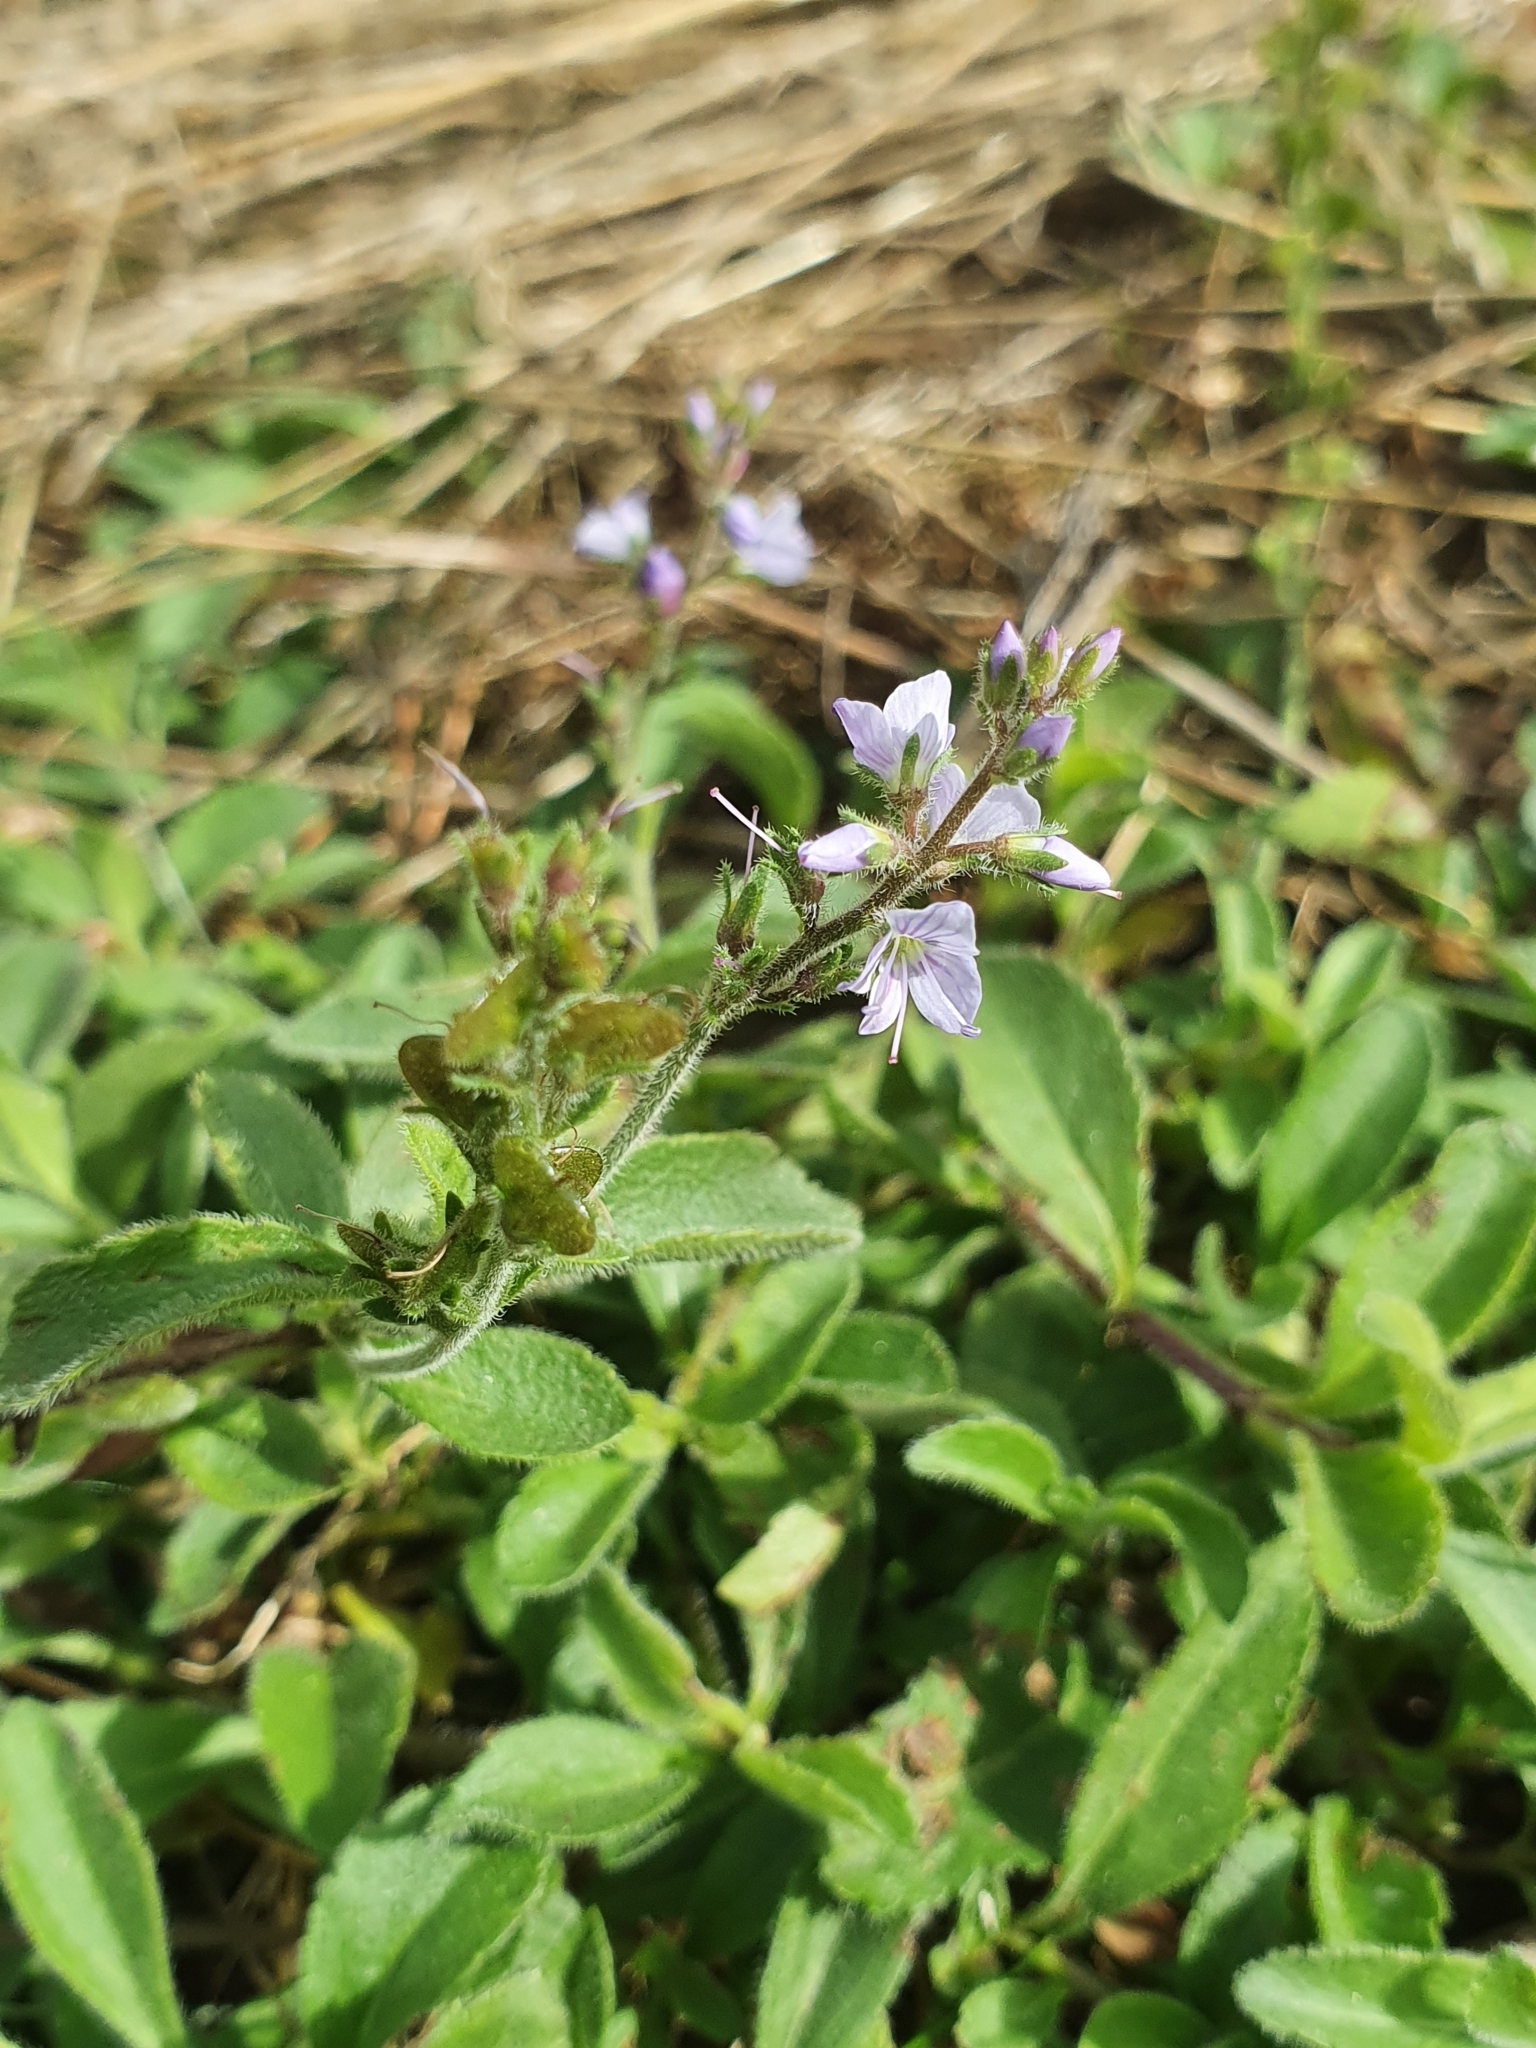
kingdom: Plantae
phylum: Tracheophyta
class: Magnoliopsida
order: Lamiales
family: Plantaginaceae
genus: Veronica
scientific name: Veronica officinalis
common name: Common speedwell
